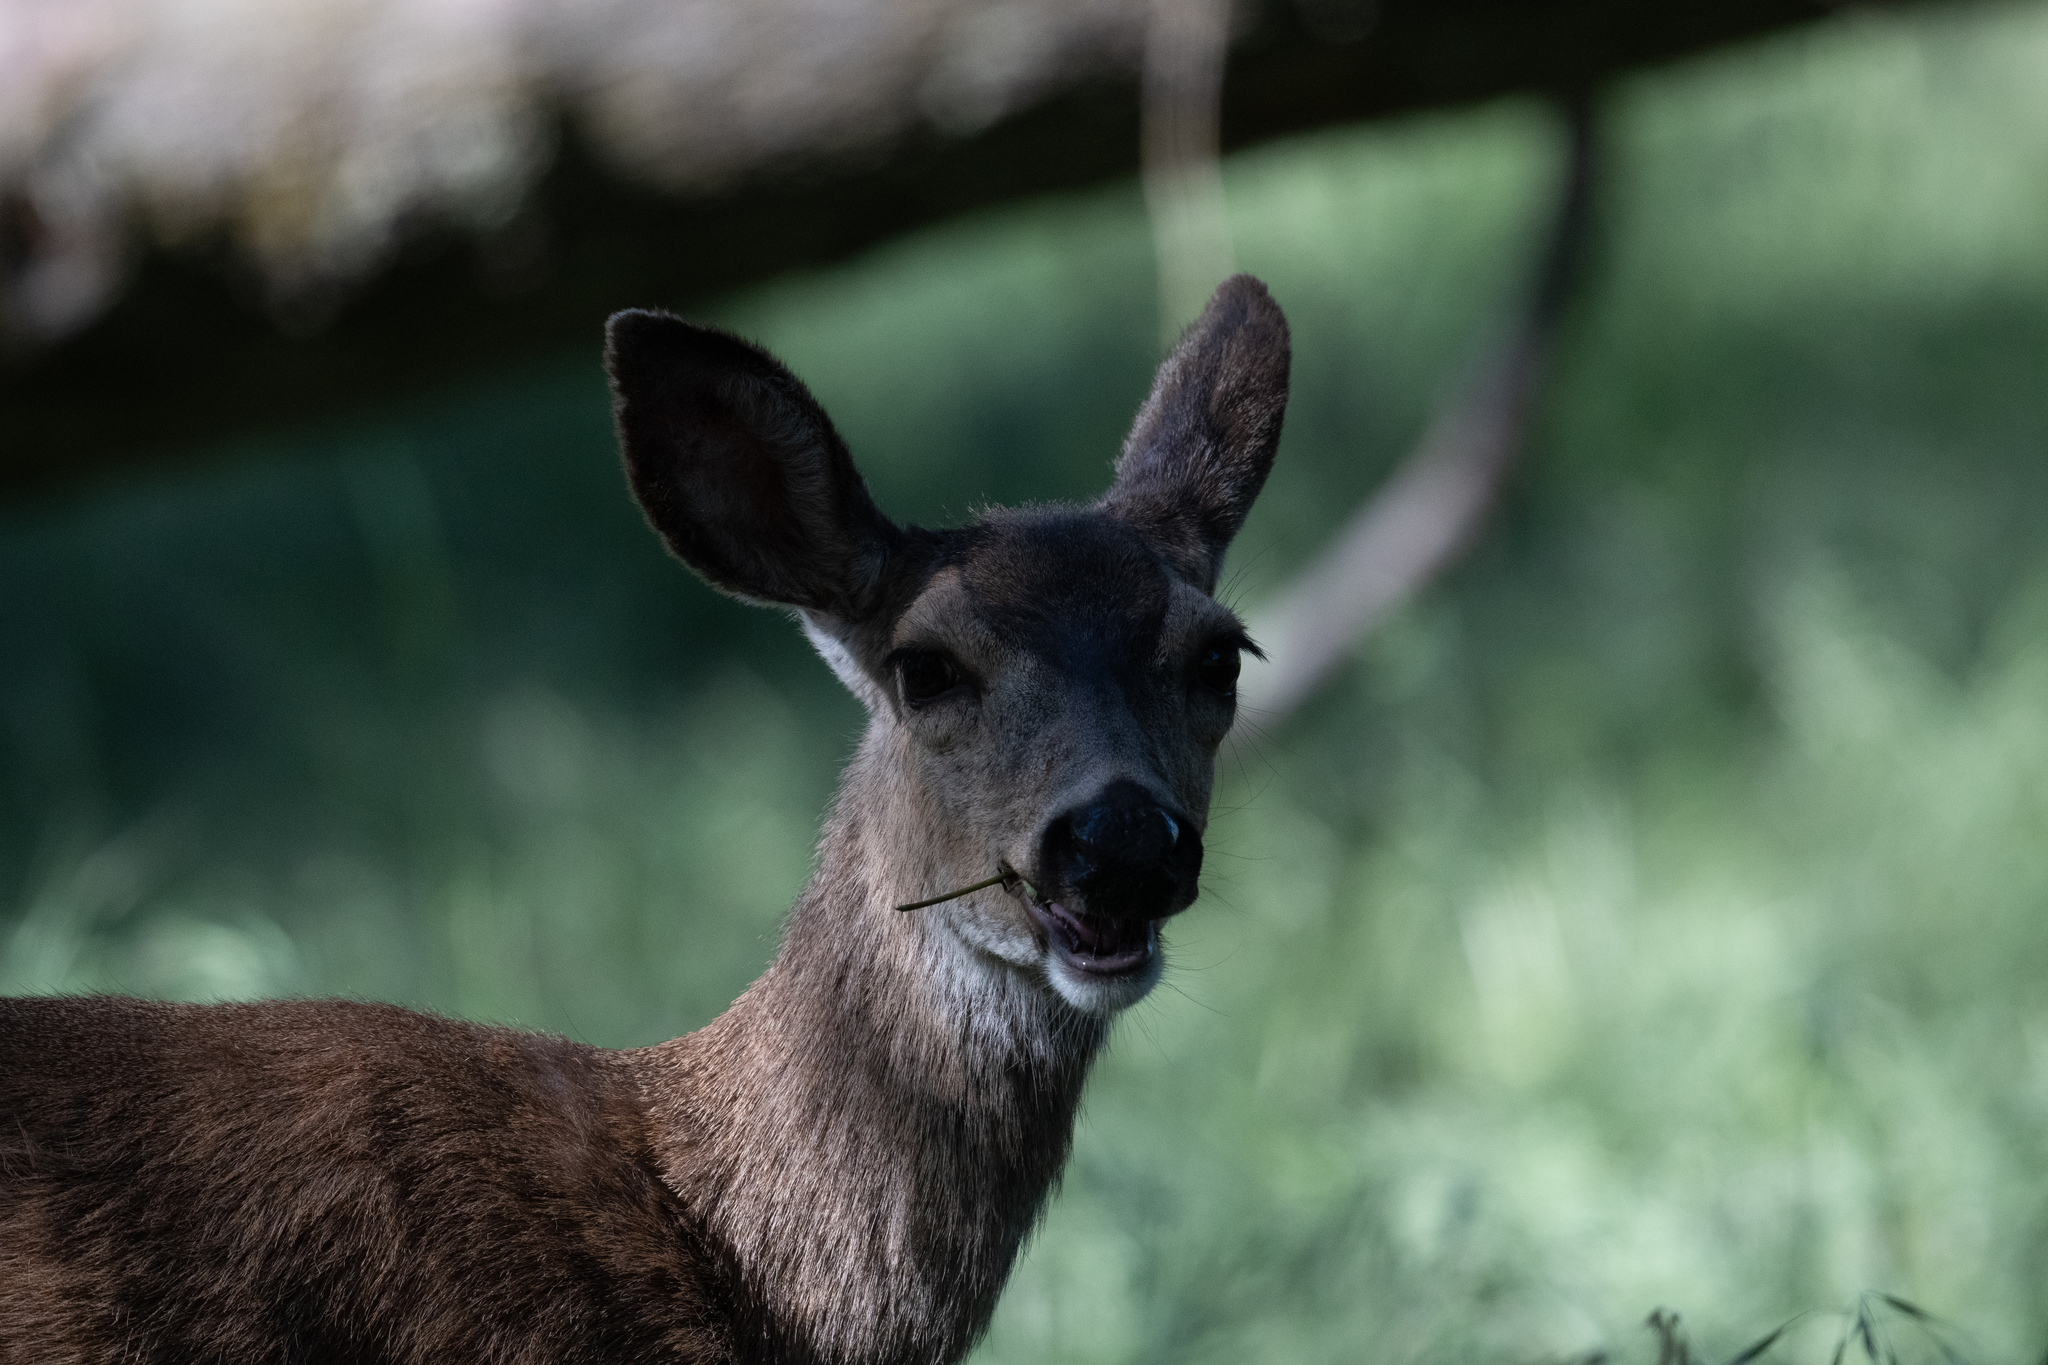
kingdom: Animalia
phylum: Chordata
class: Mammalia
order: Artiodactyla
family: Cervidae
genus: Odocoileus
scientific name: Odocoileus hemionus
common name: Mule deer
